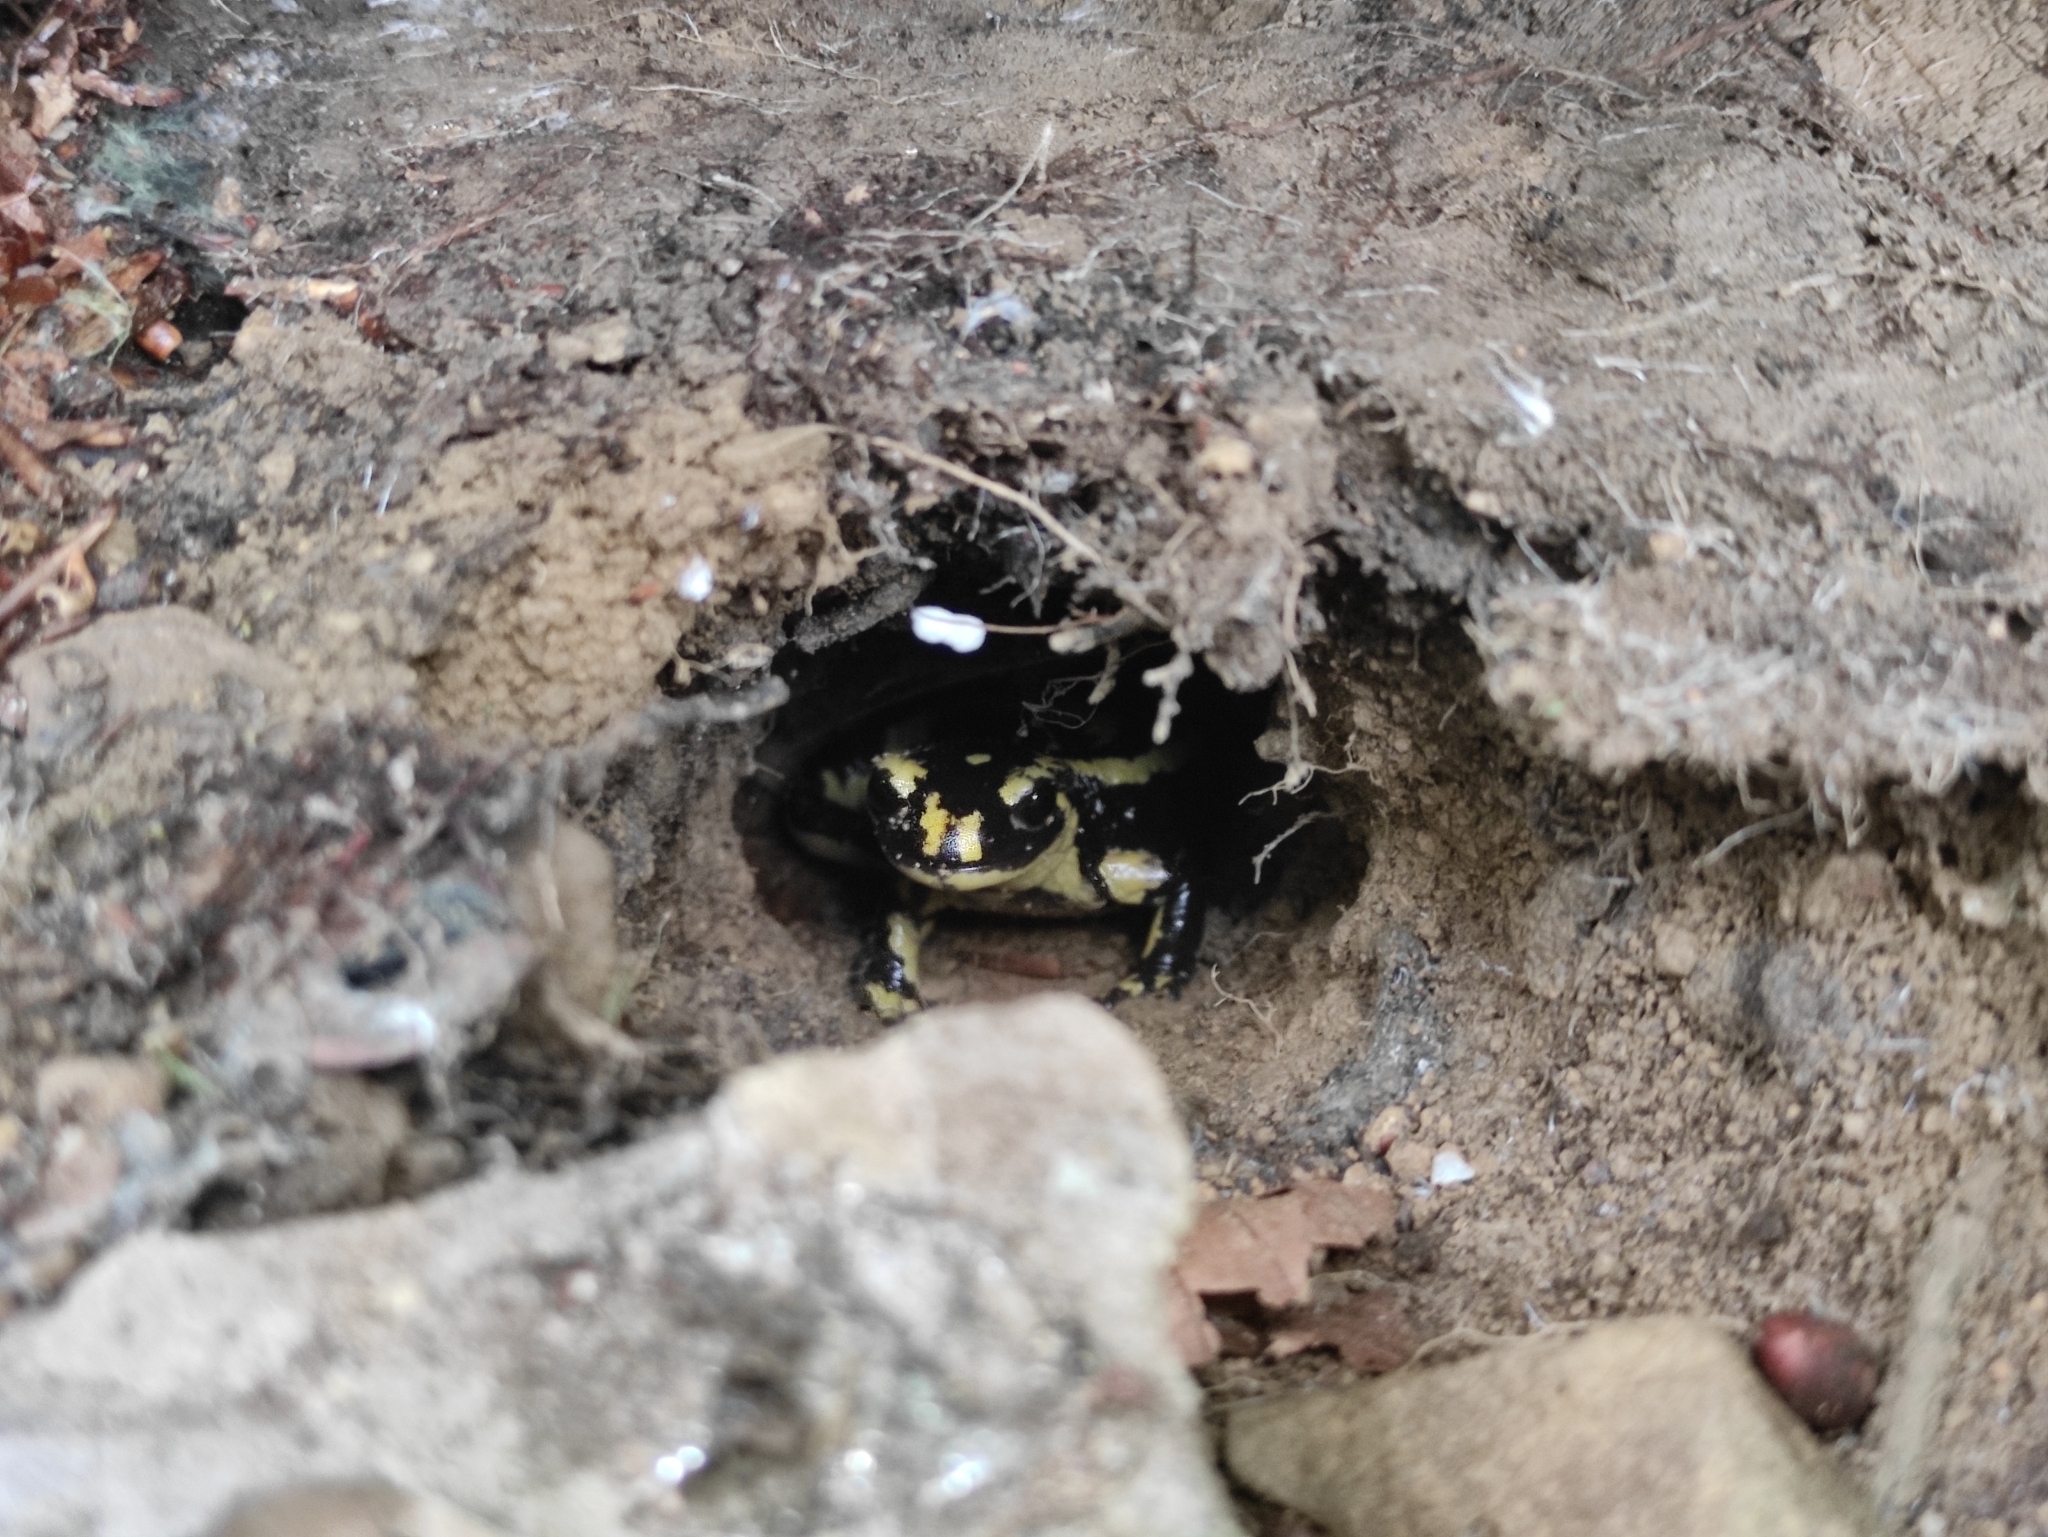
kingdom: Animalia
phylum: Chordata
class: Amphibia
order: Caudata
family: Salamandridae
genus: Salamandra
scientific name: Salamandra salamandra
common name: Fire salamander
